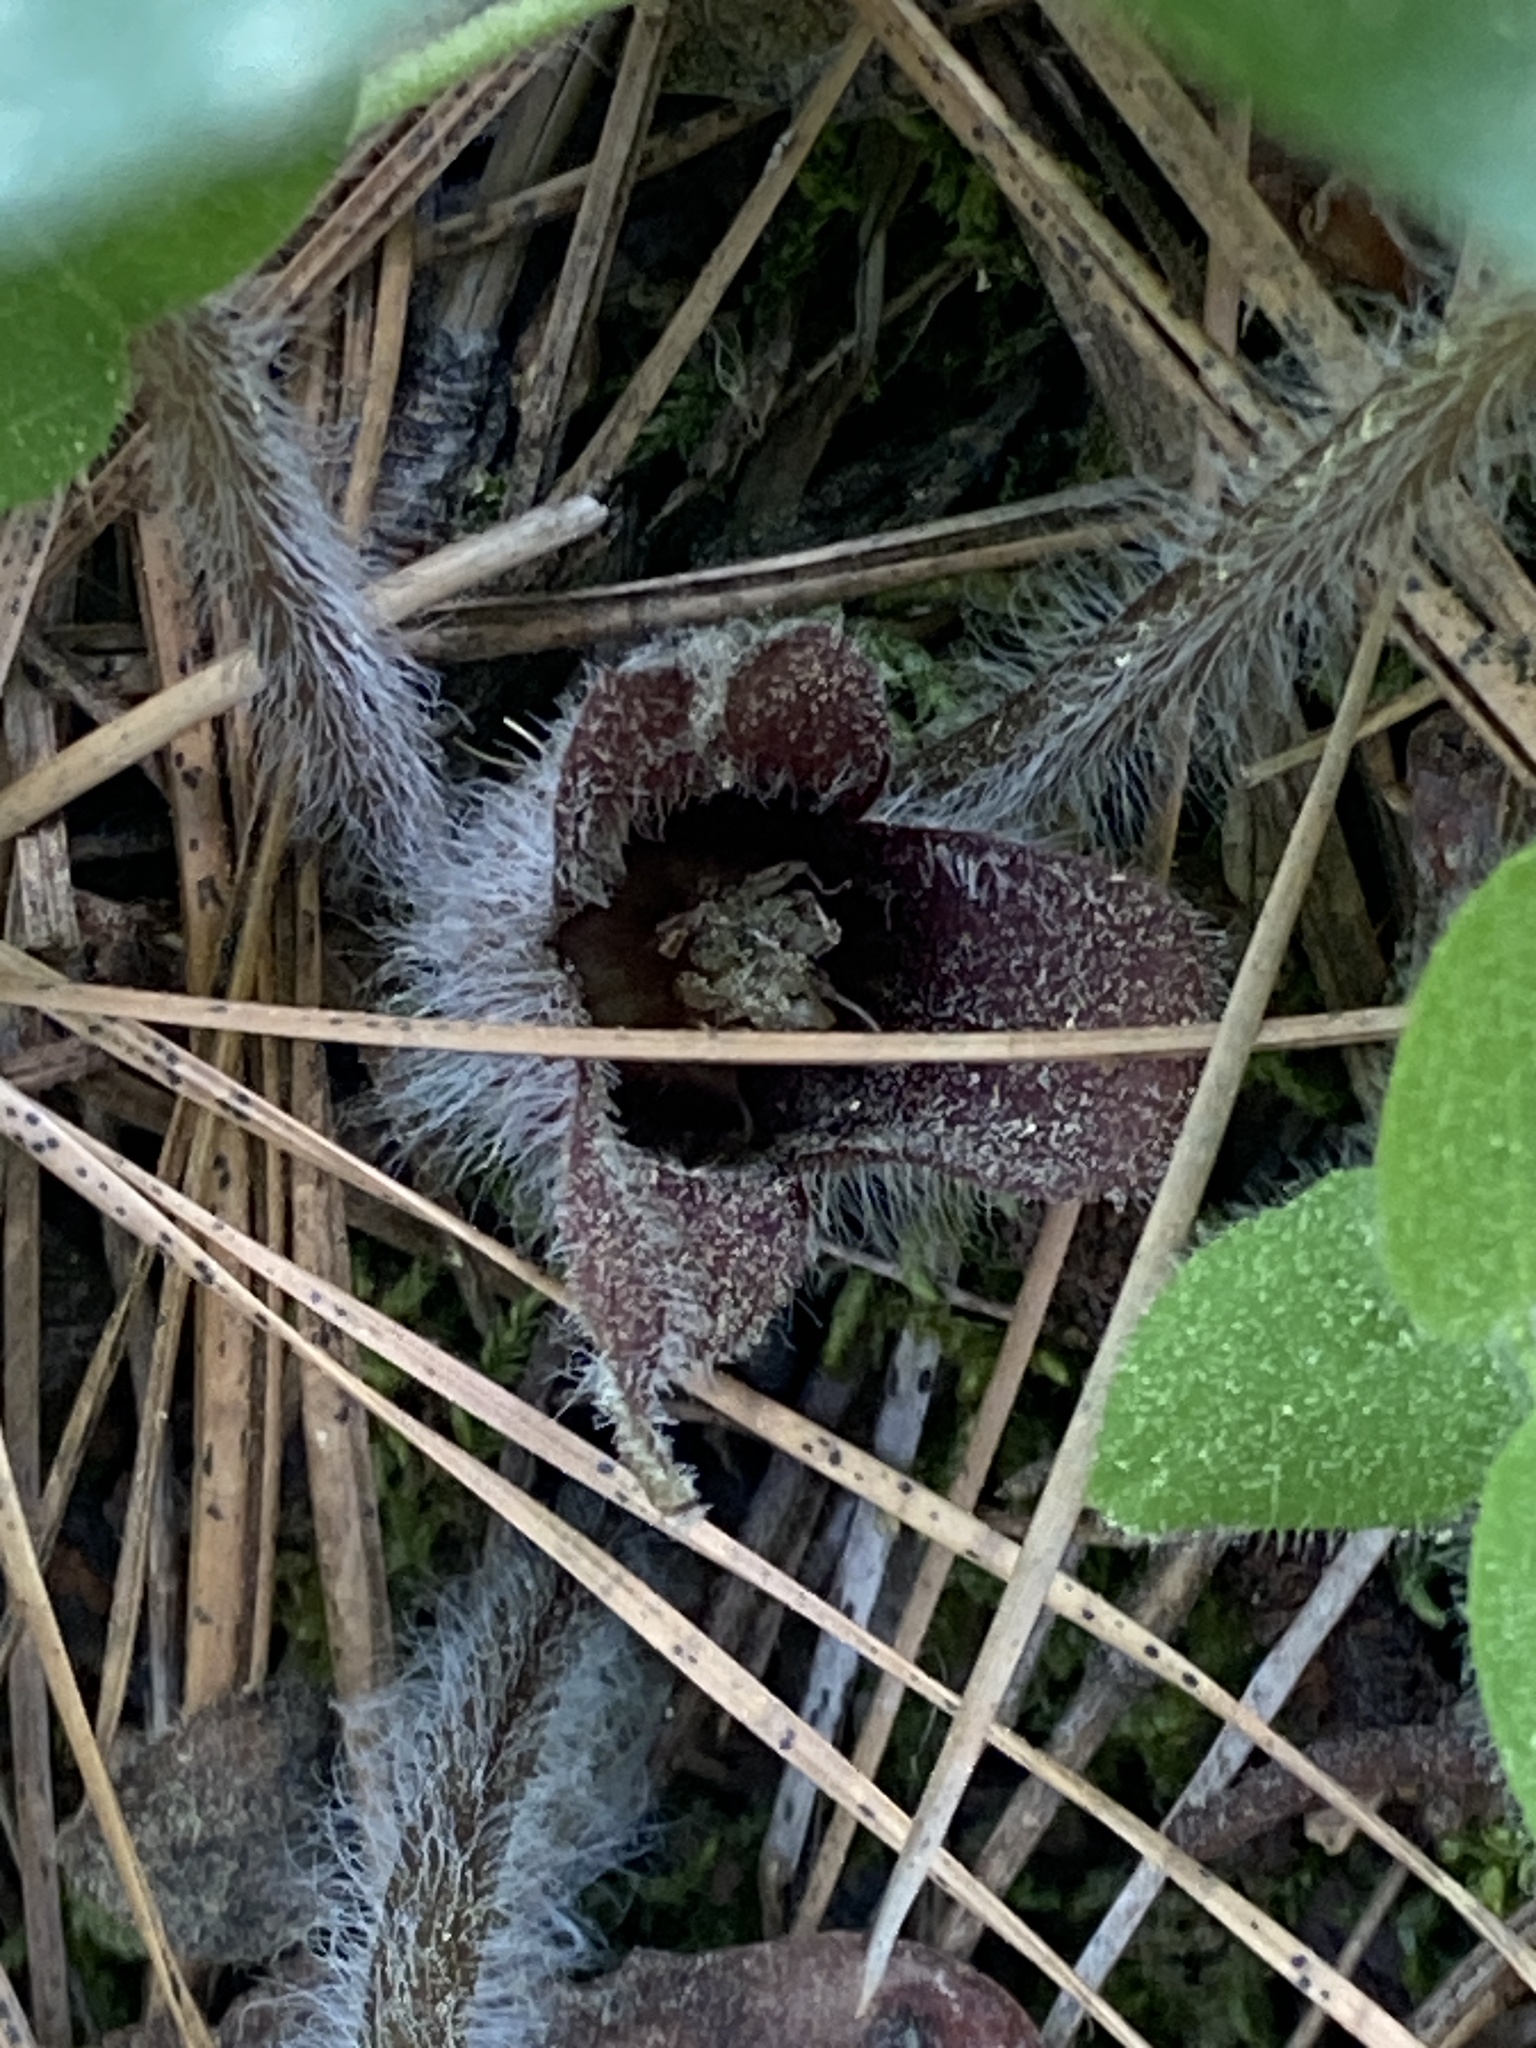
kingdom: Plantae
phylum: Tracheophyta
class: Magnoliopsida
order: Piperales
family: Aristolochiaceae
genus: Asarum
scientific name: Asarum hartwegii
